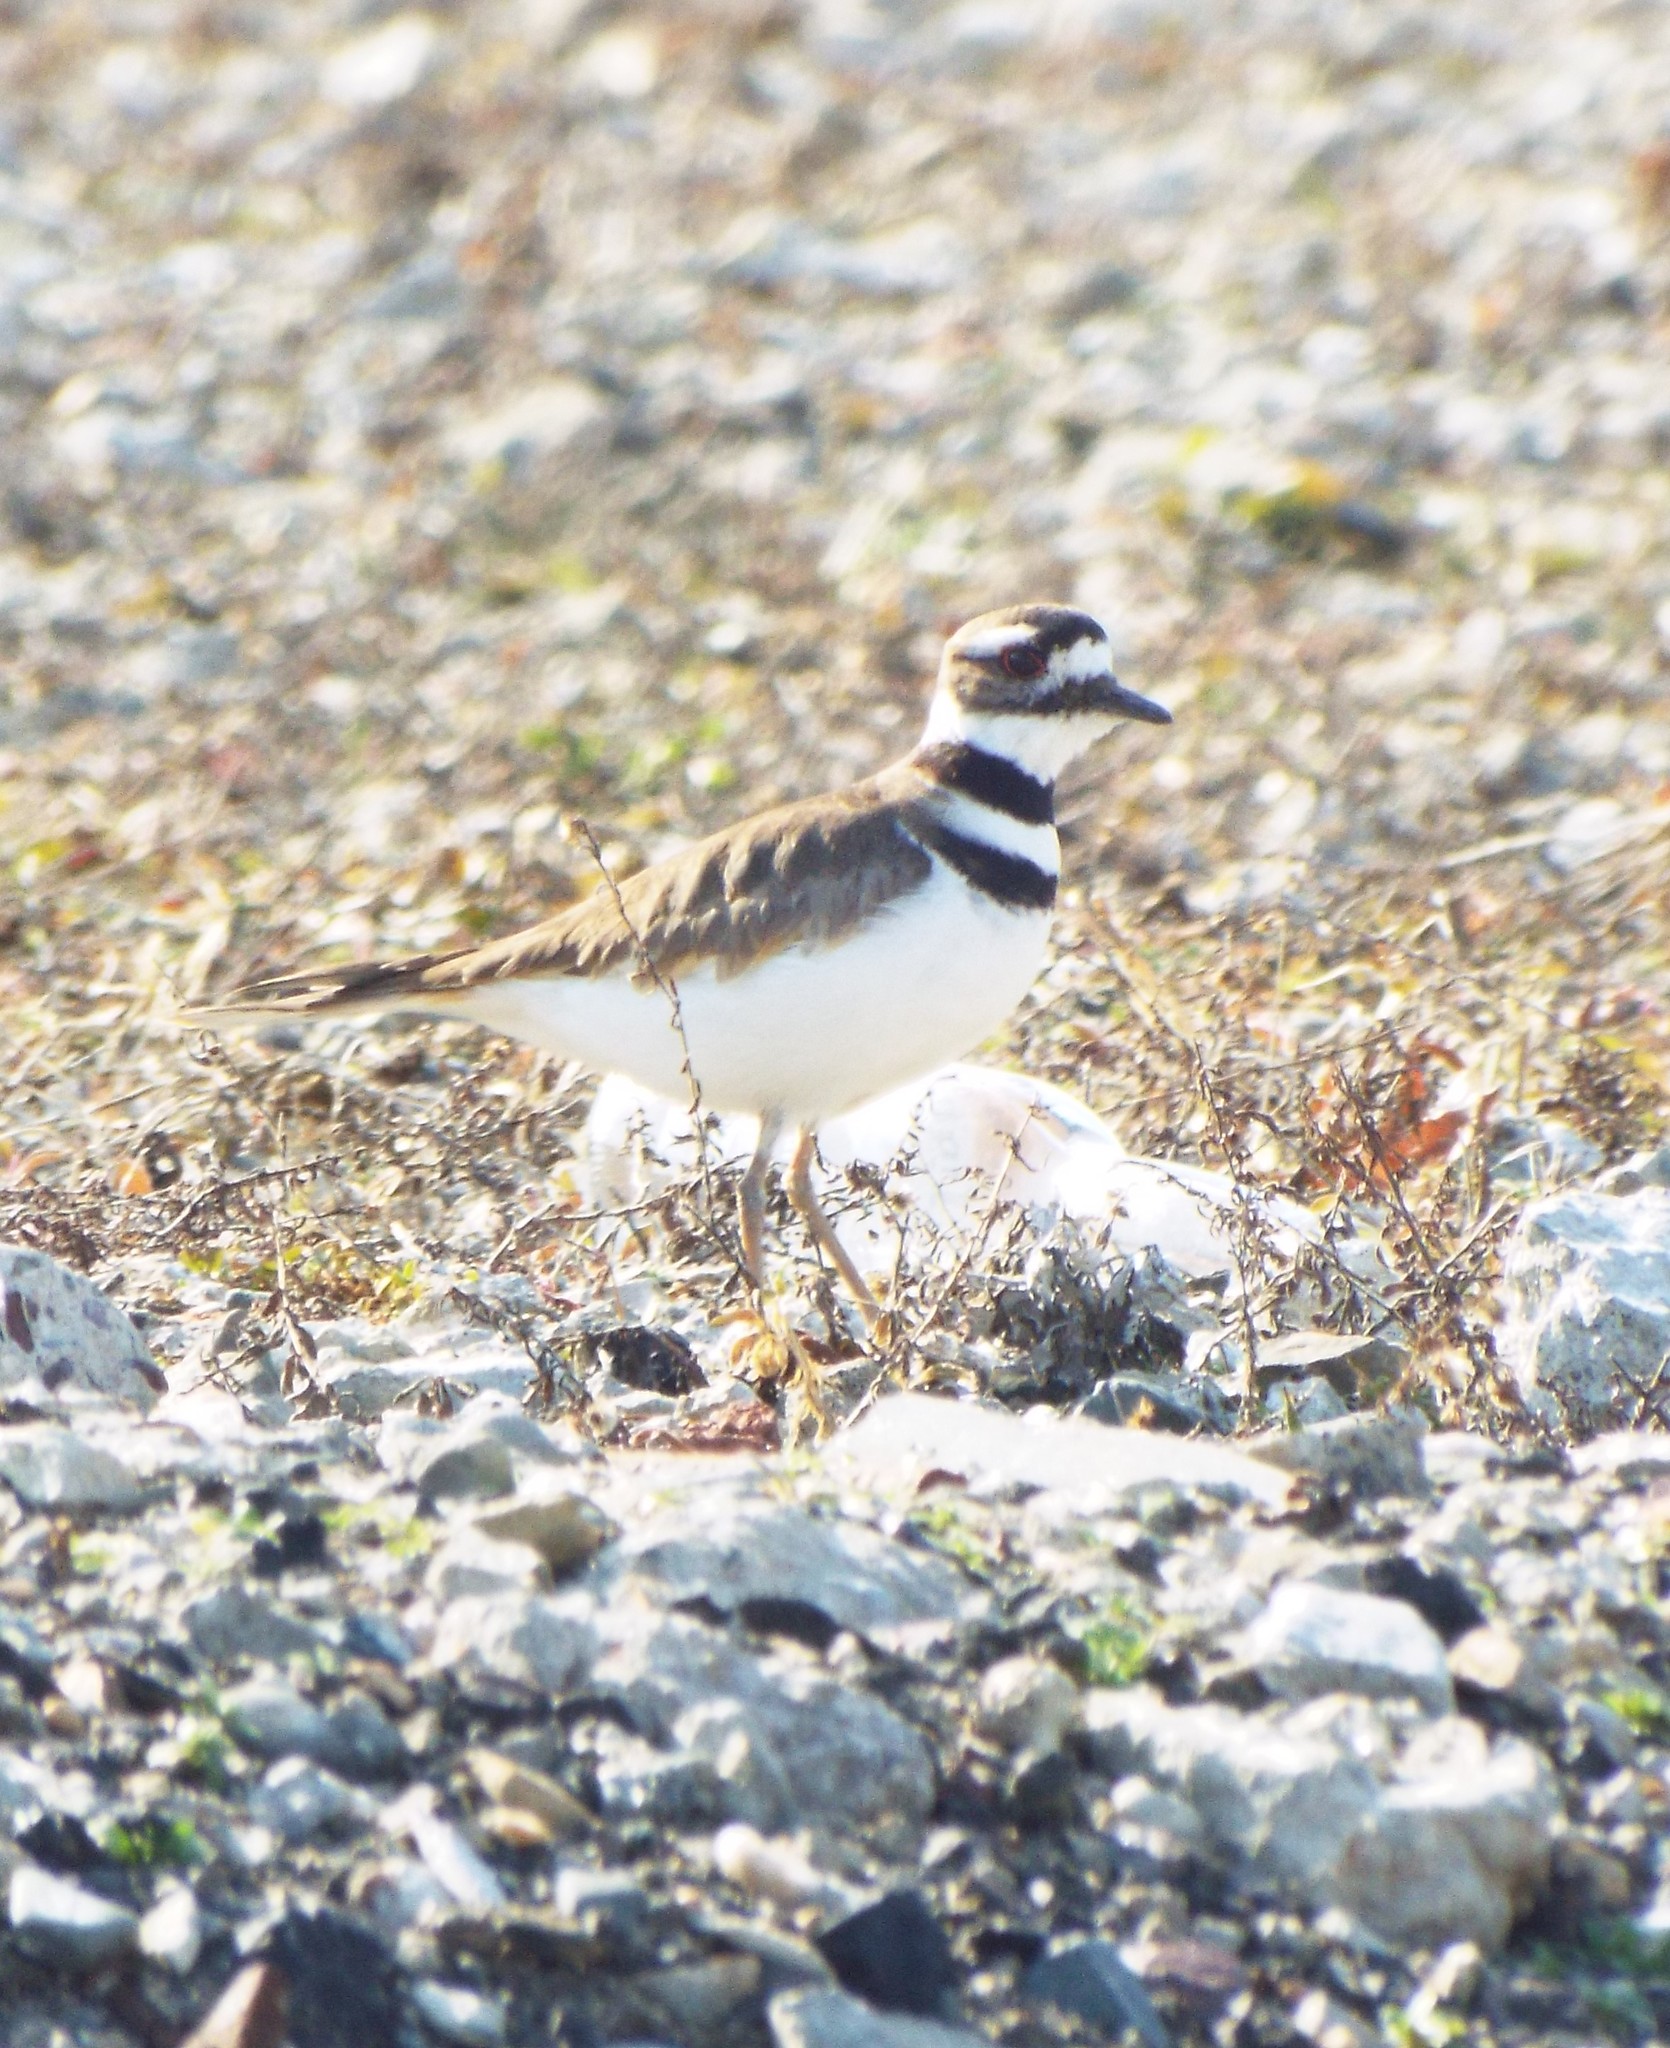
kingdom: Animalia
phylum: Chordata
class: Aves
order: Charadriiformes
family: Charadriidae
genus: Charadrius
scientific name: Charadrius vociferus
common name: Killdeer
